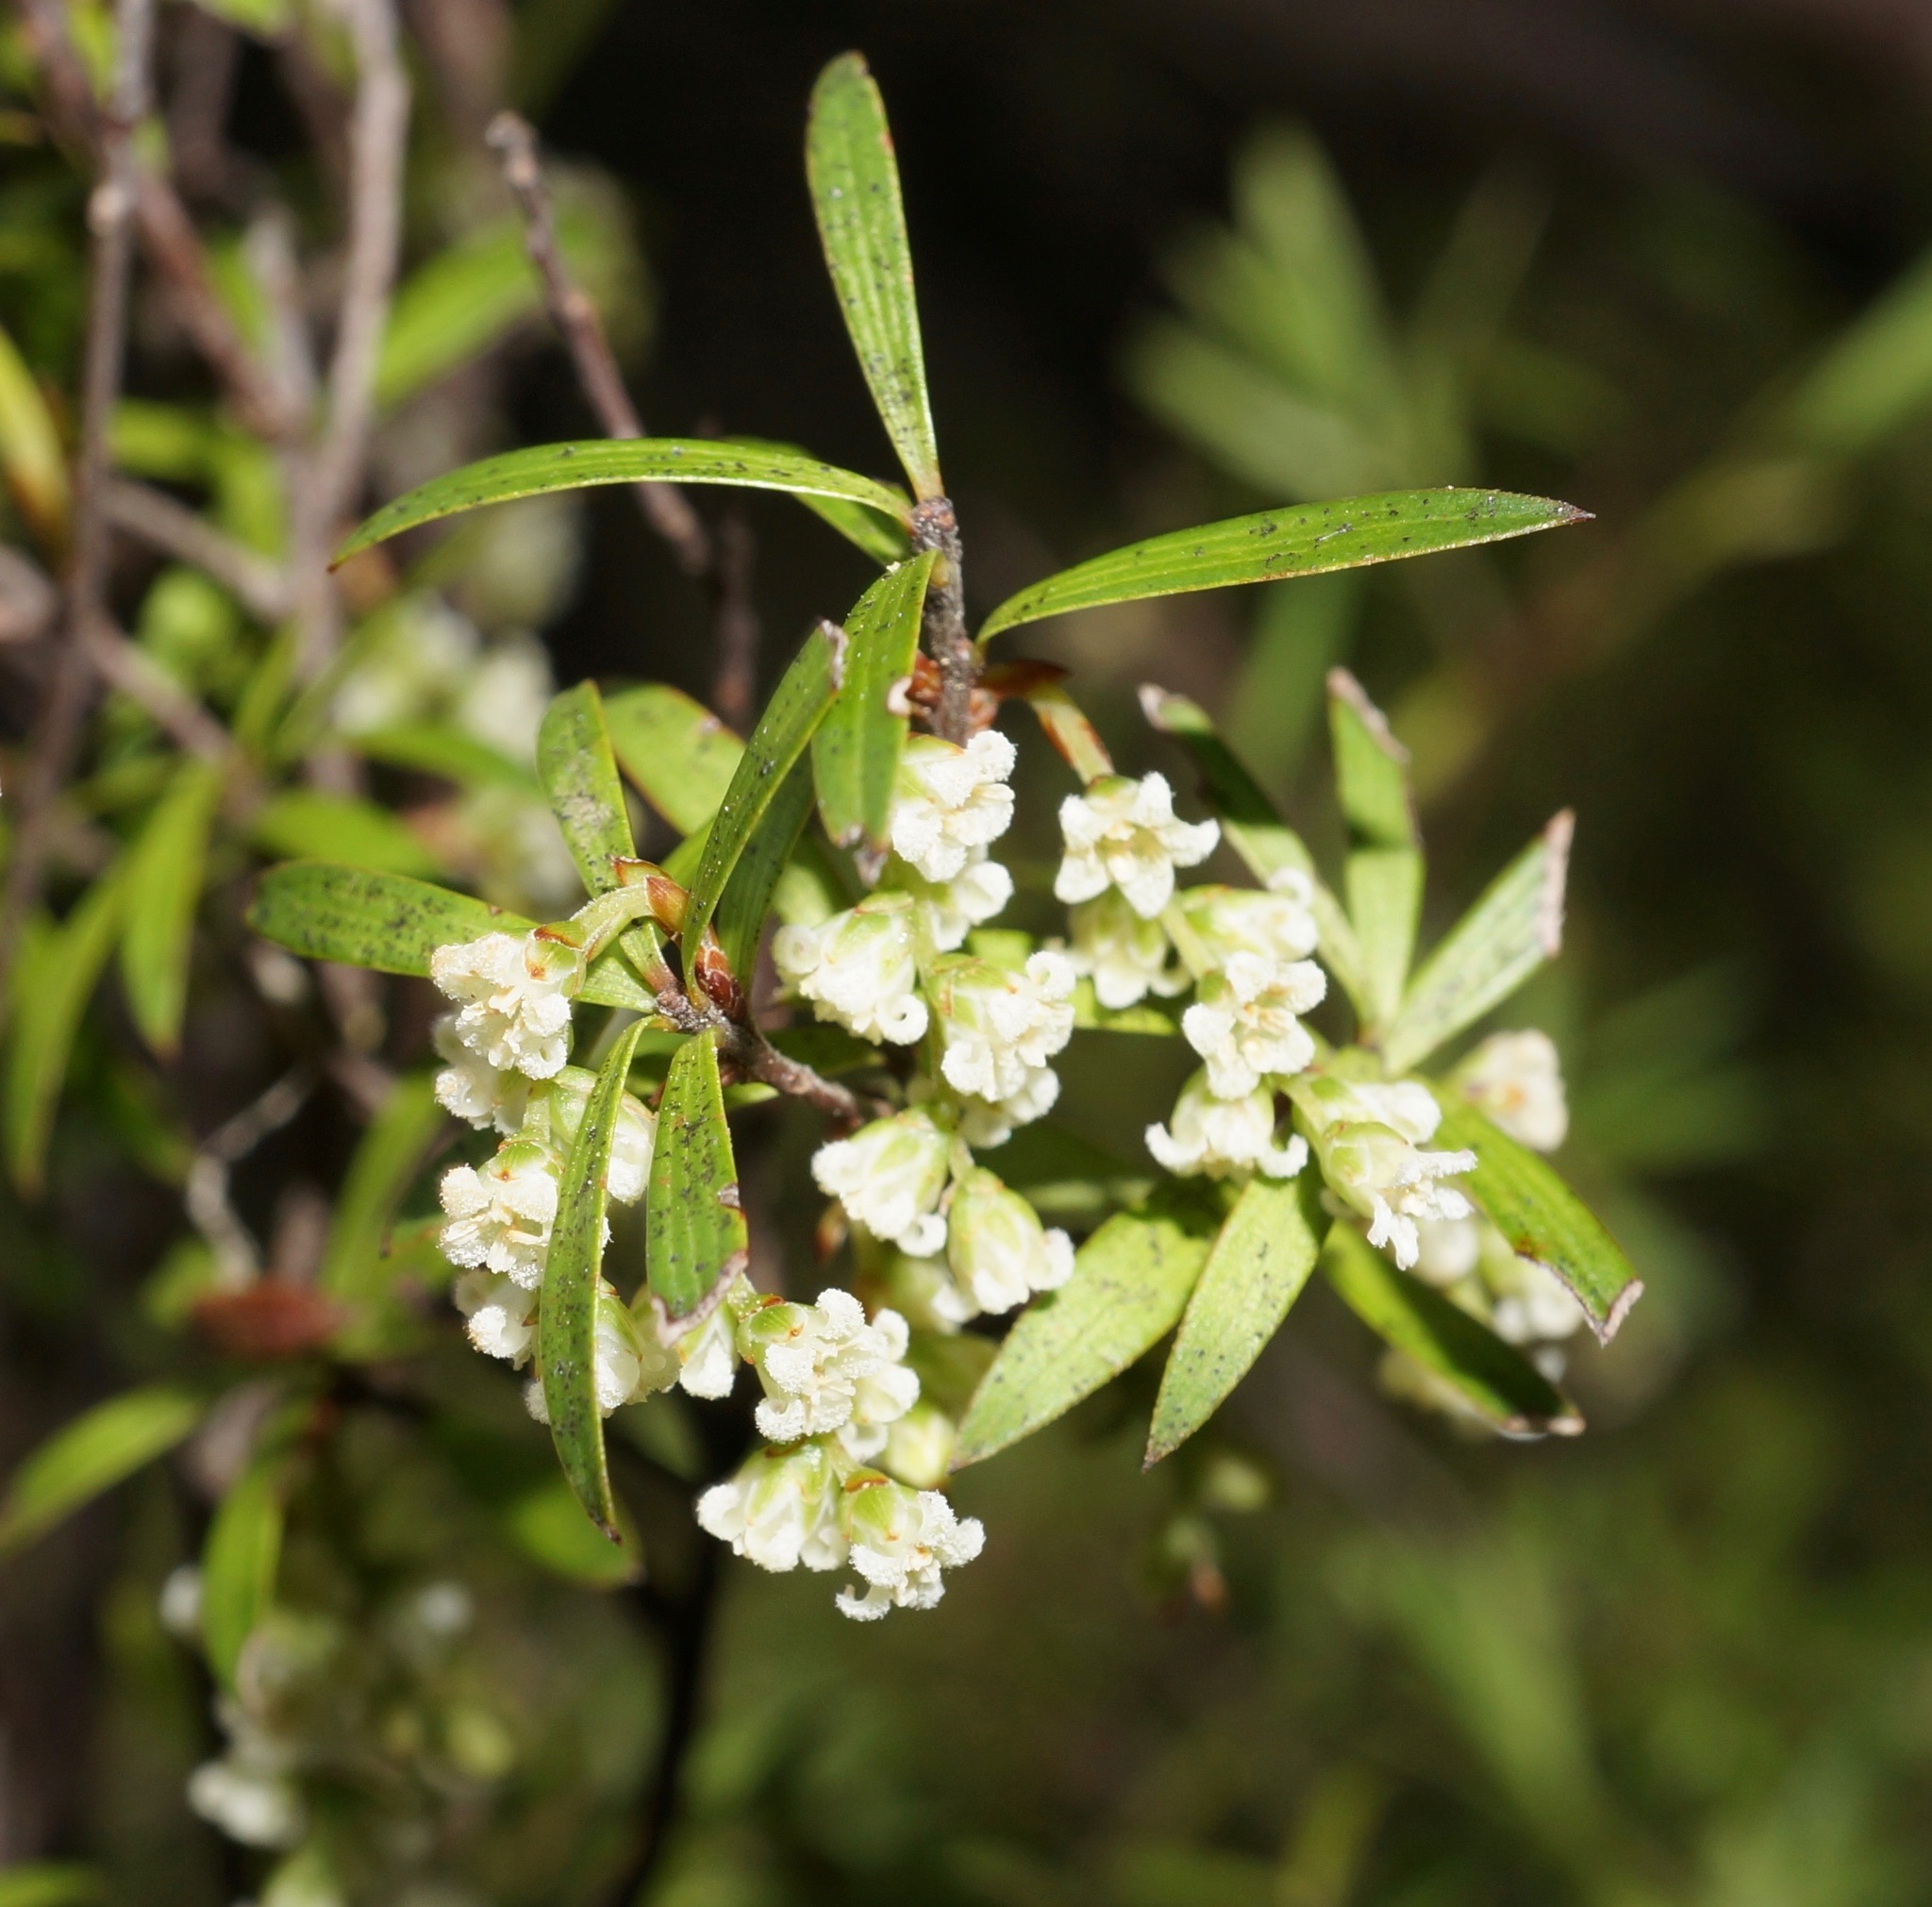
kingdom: Plantae
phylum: Tracheophyta
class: Magnoliopsida
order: Ericales
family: Ericaceae
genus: Leucopogon
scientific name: Leucopogon fasciculatus
